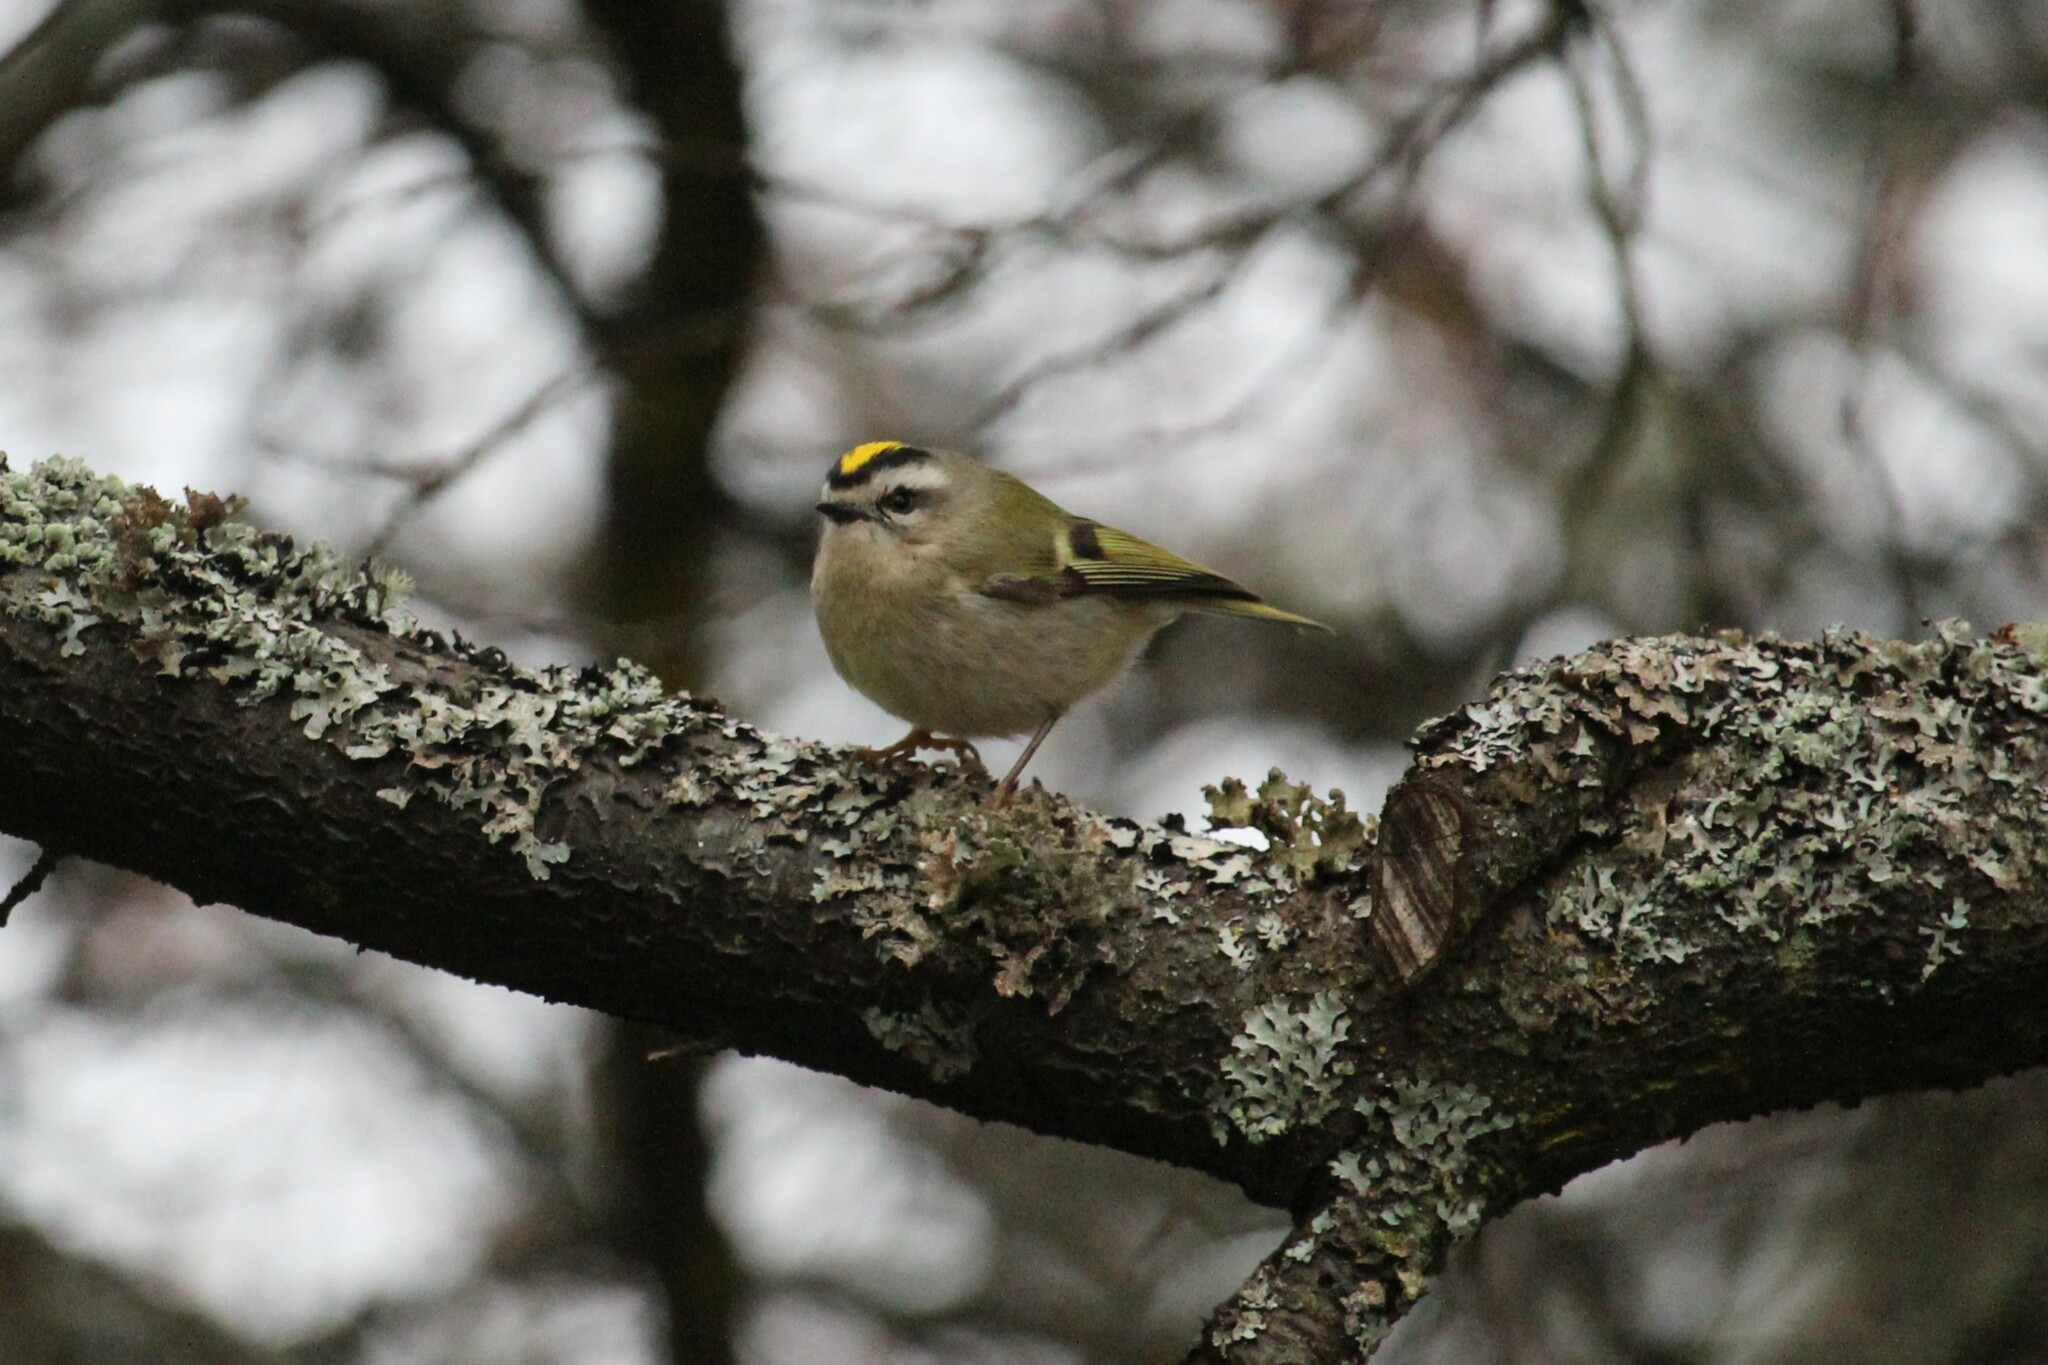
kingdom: Animalia
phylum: Chordata
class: Aves
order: Passeriformes
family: Regulidae
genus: Regulus
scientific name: Regulus satrapa
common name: Golden-crowned kinglet
